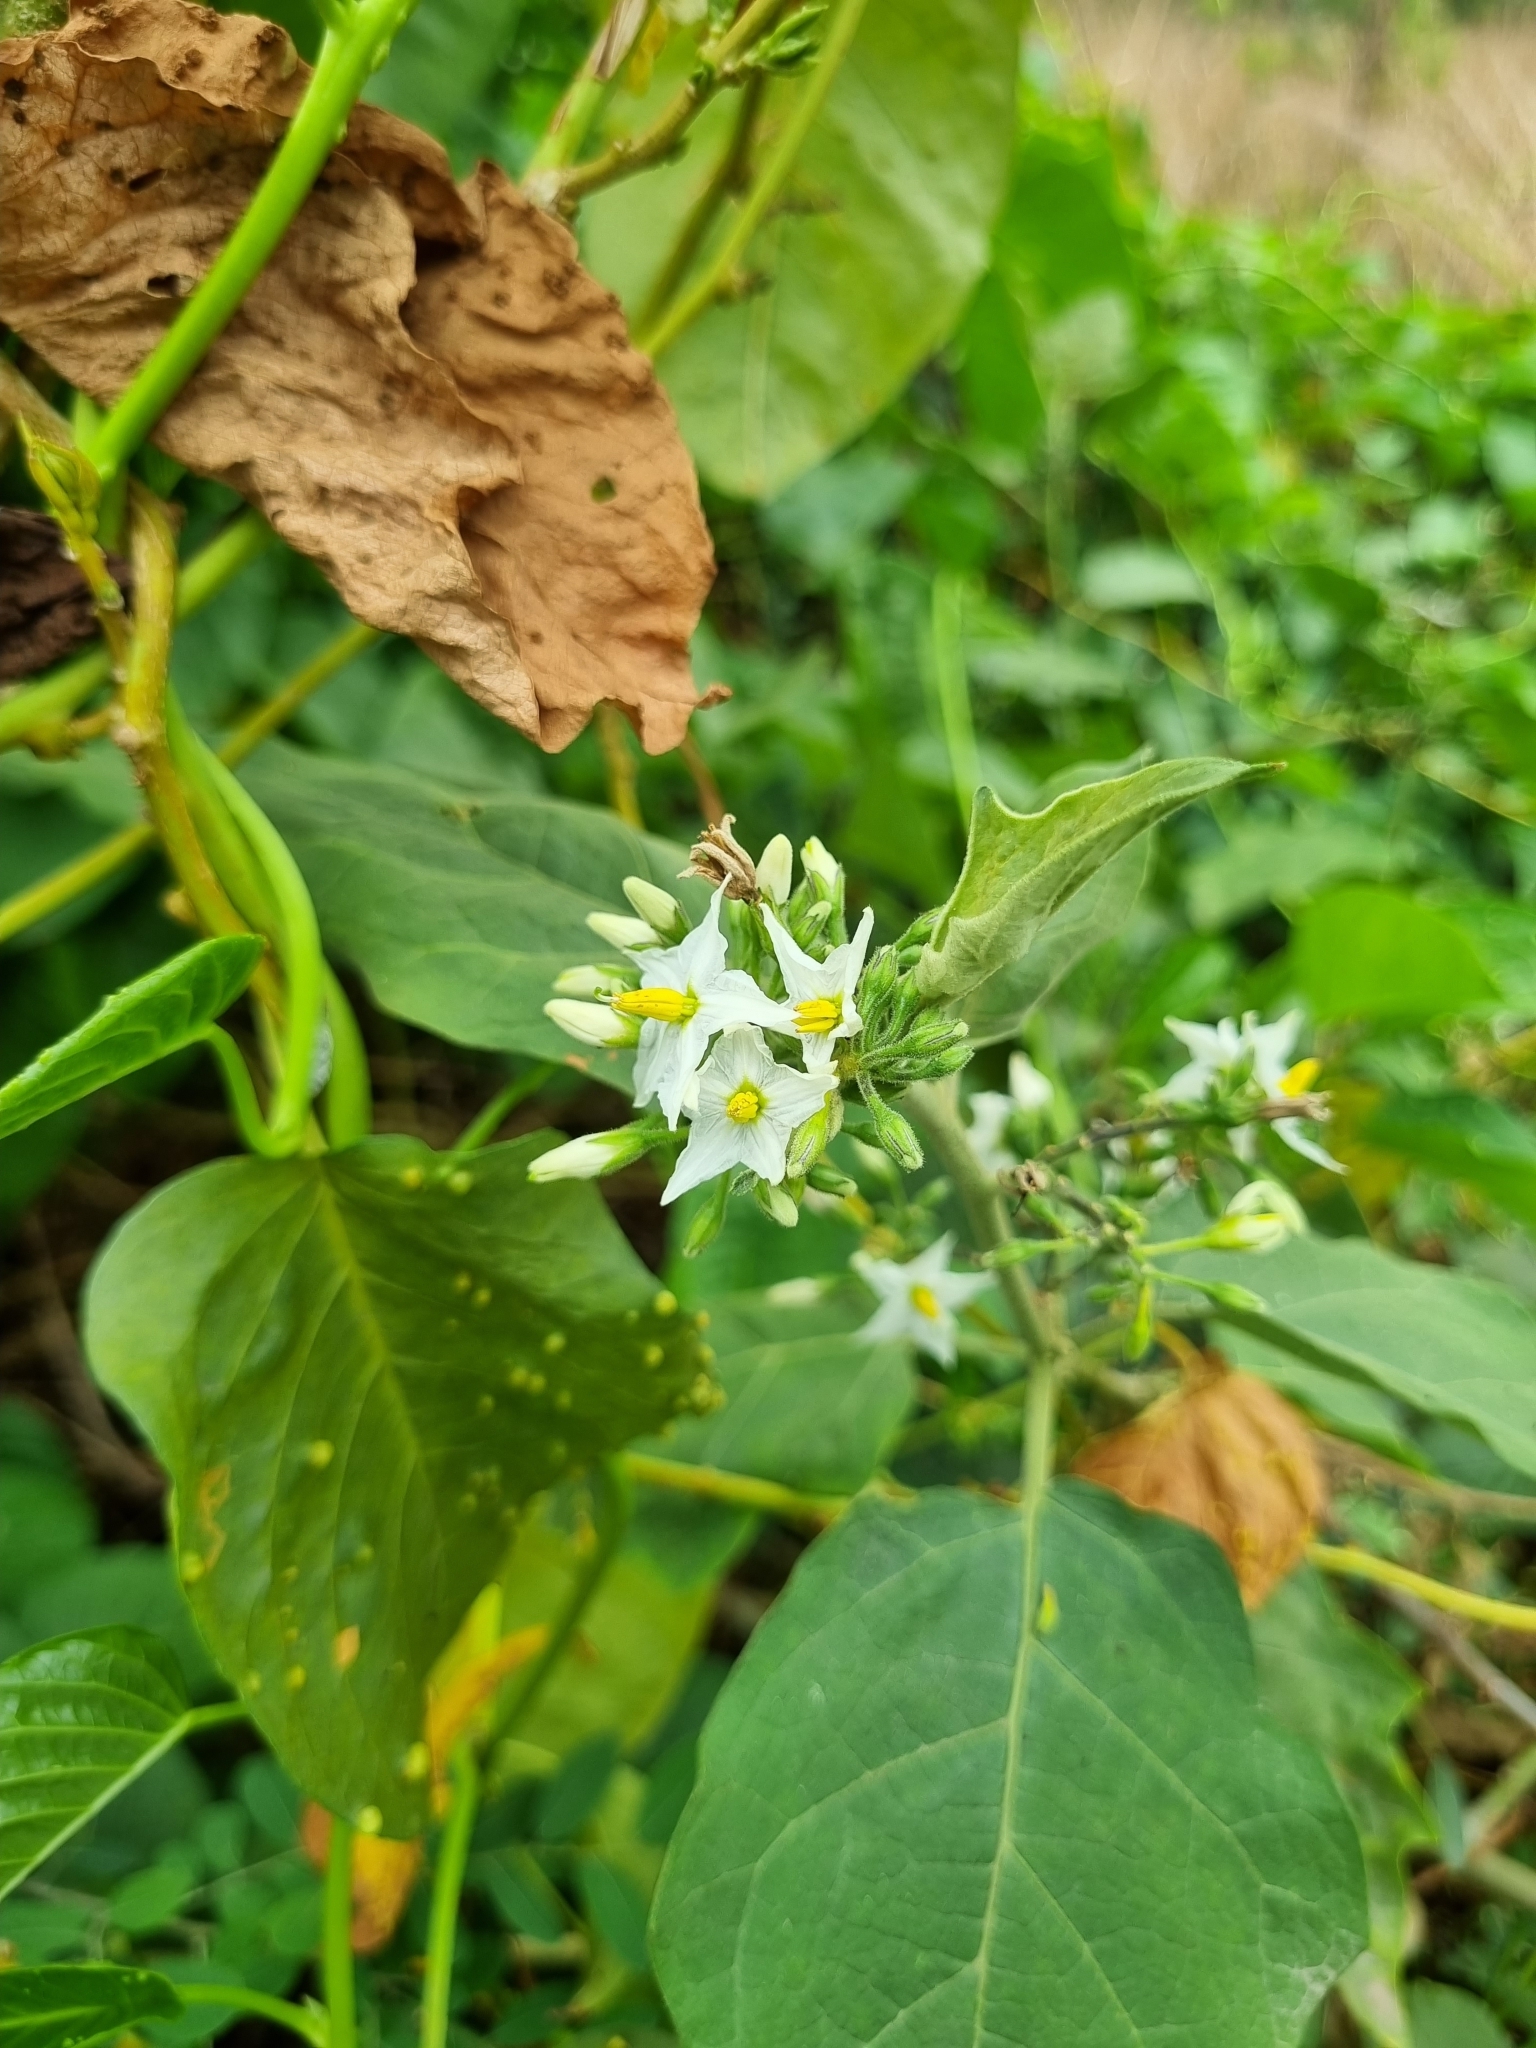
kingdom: Plantae
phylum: Tracheophyta
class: Magnoliopsida
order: Solanales
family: Solanaceae
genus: Solanum
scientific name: Solanum torvum
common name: Turkey berry
